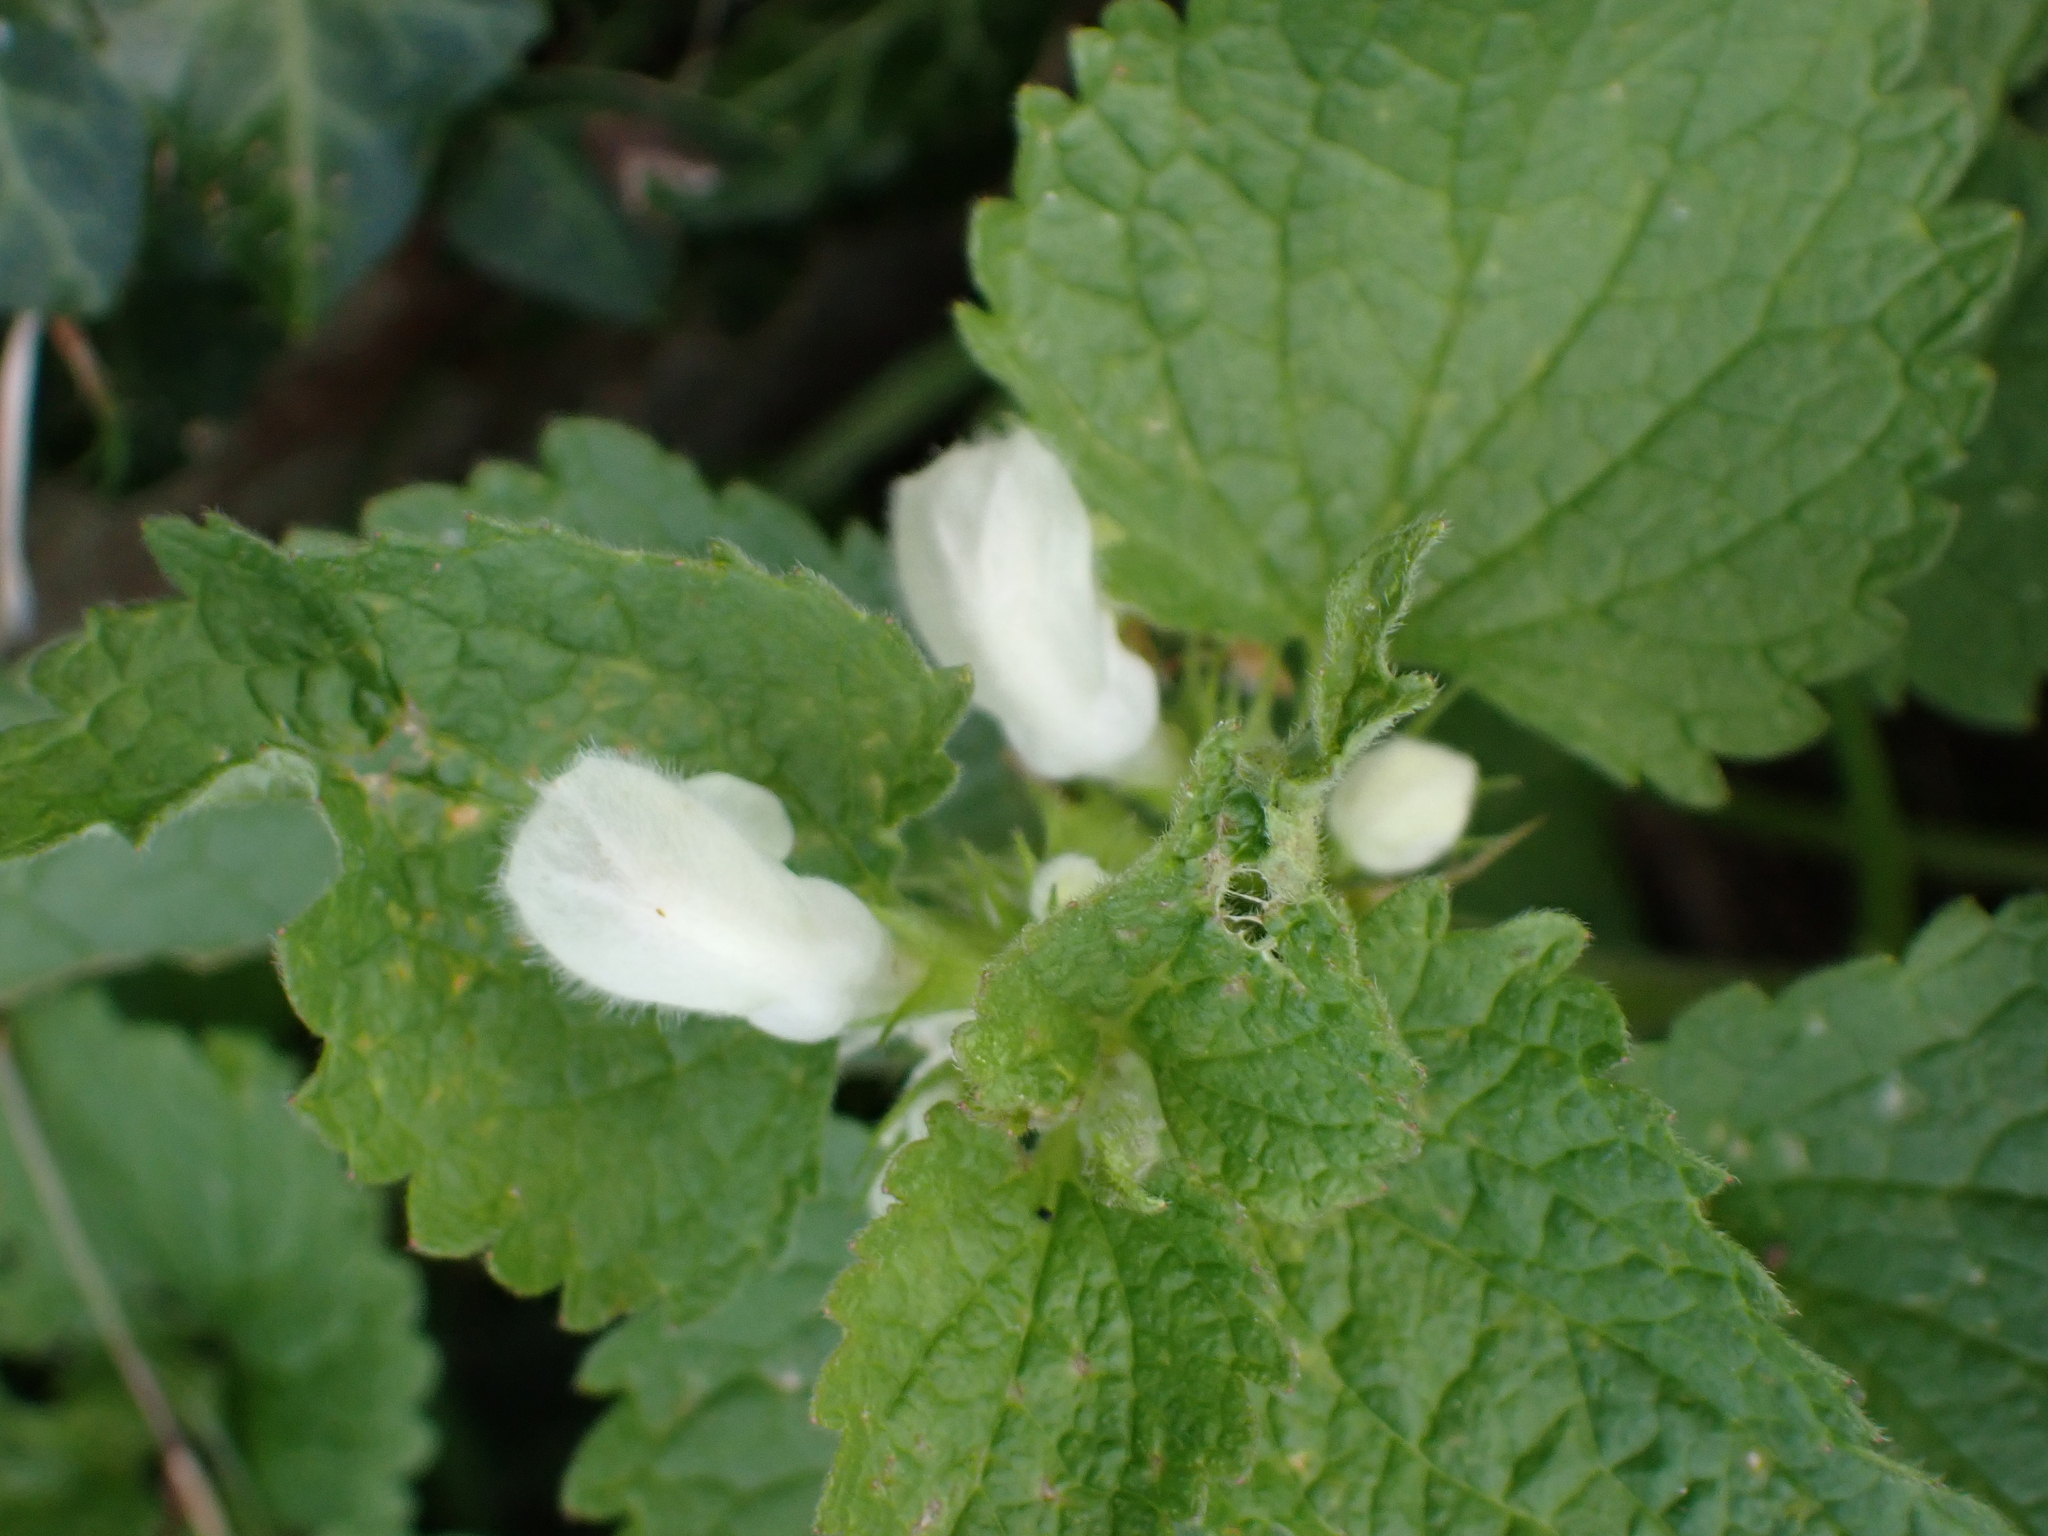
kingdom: Plantae
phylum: Tracheophyta
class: Magnoliopsida
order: Lamiales
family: Lamiaceae
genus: Lamium
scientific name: Lamium album
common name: White dead-nettle
